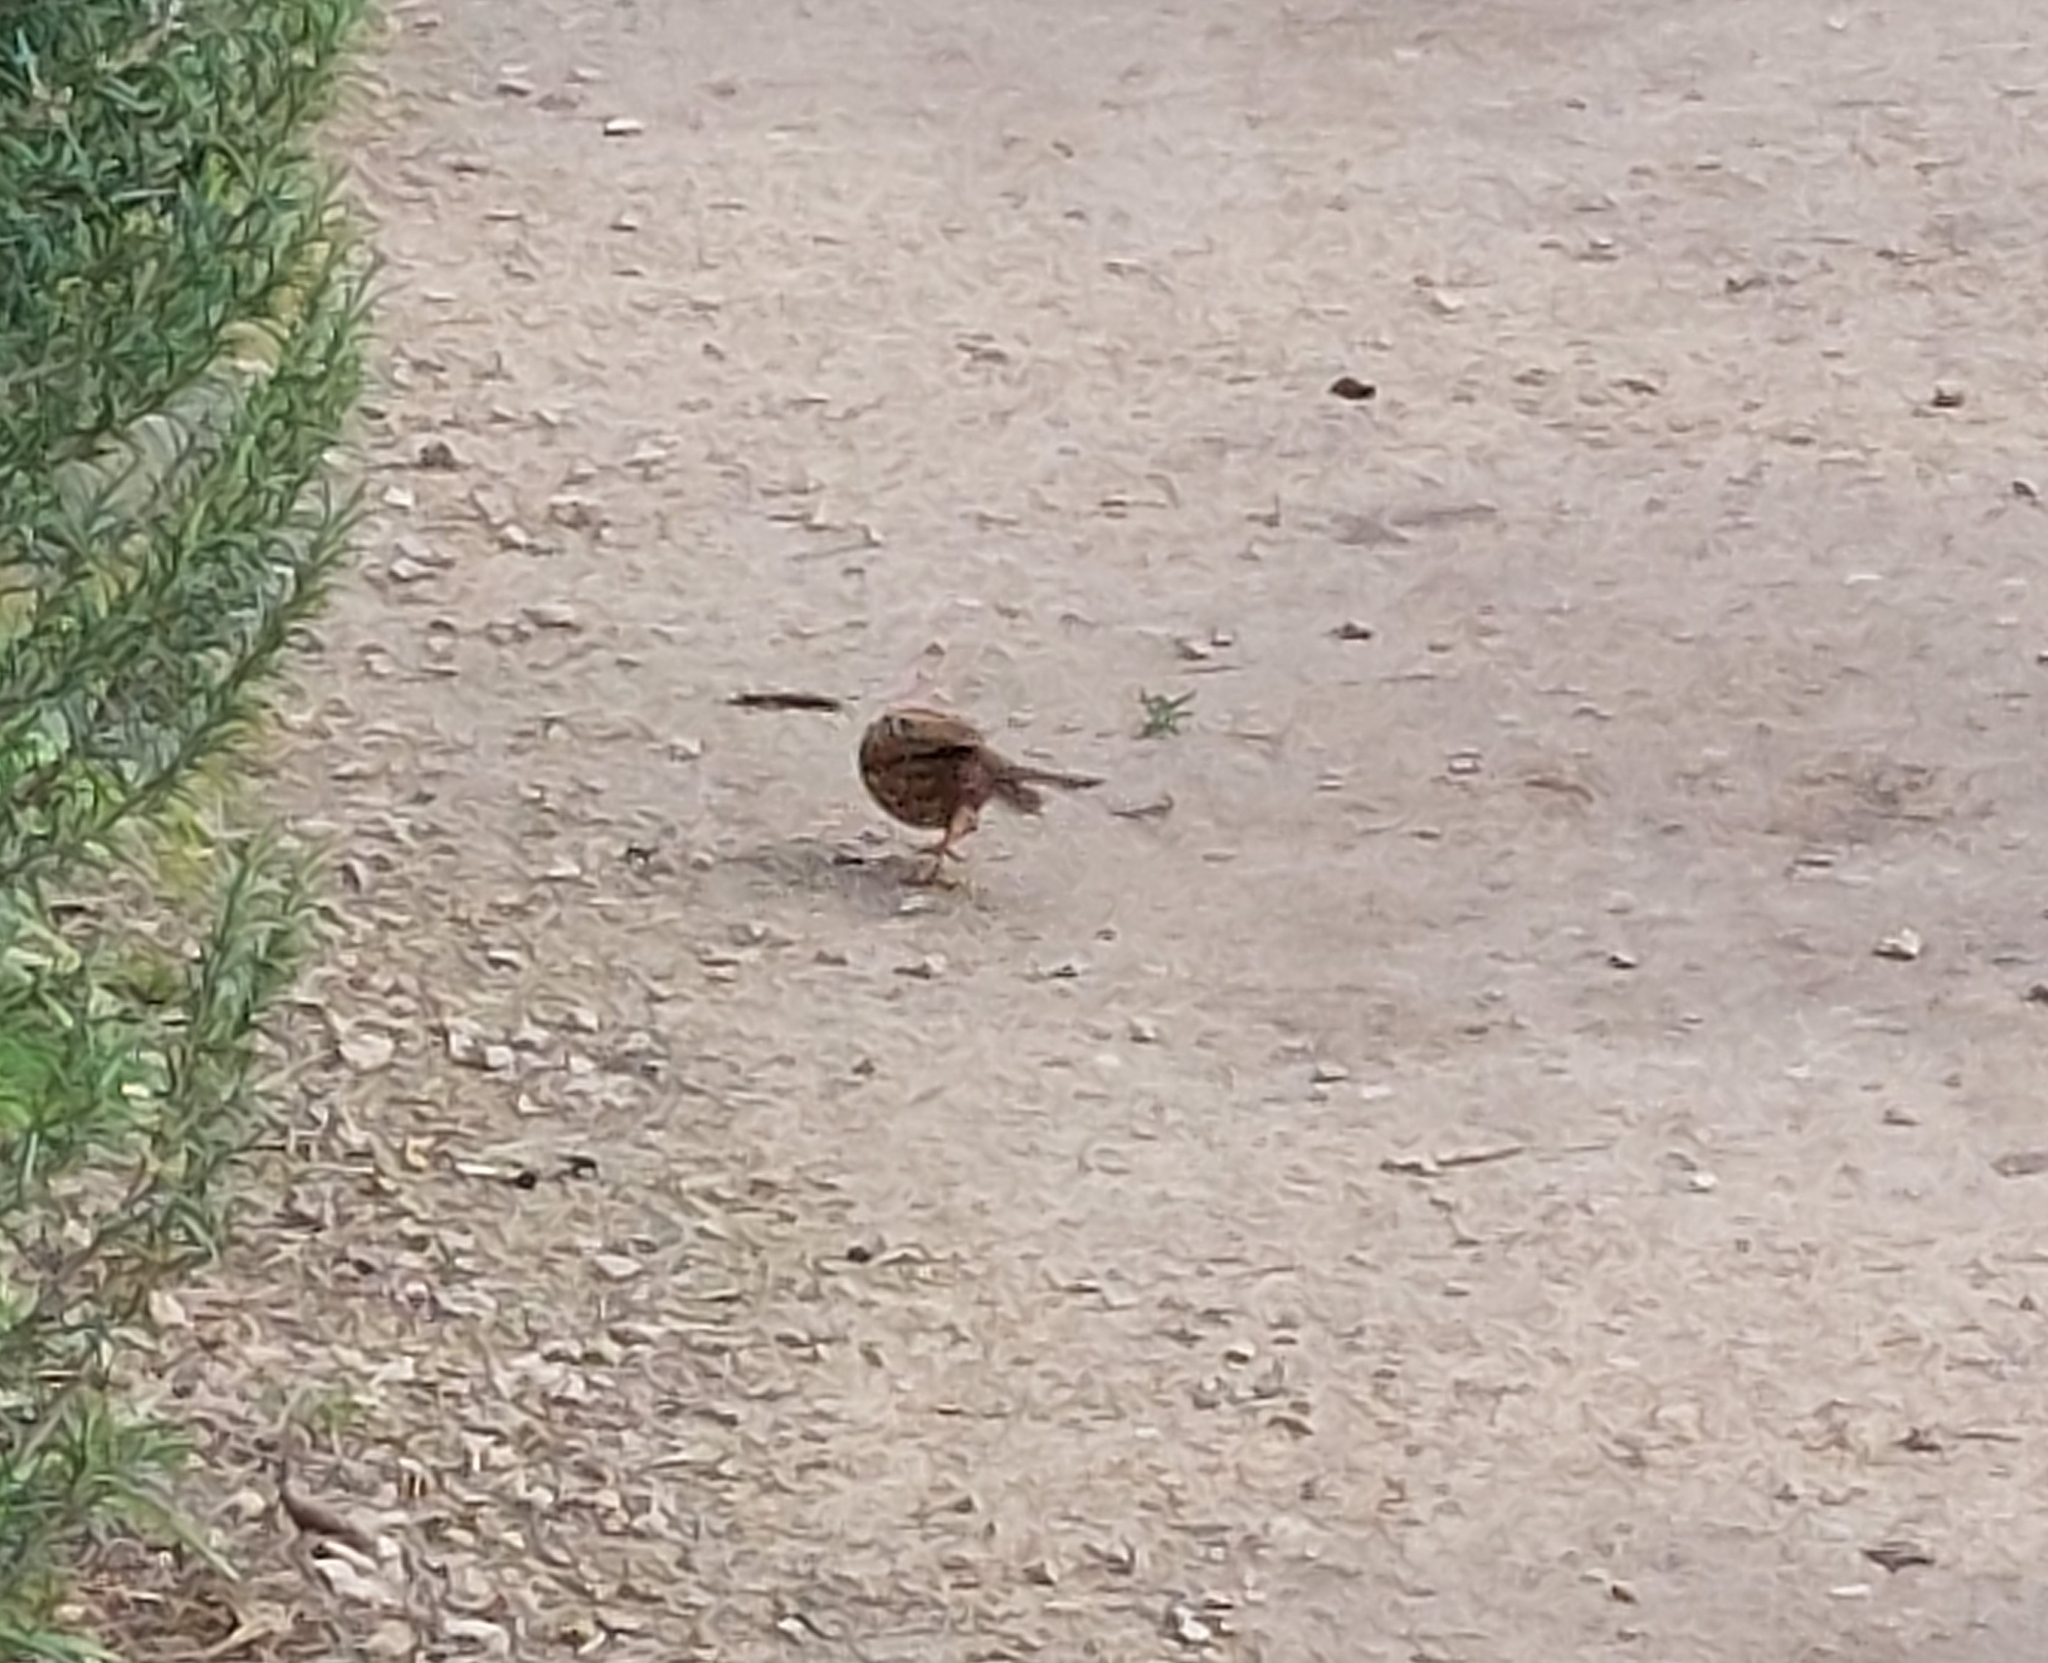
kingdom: Animalia
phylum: Chordata
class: Aves
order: Passeriformes
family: Prunellidae
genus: Prunella
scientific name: Prunella modularis
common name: Dunnock
